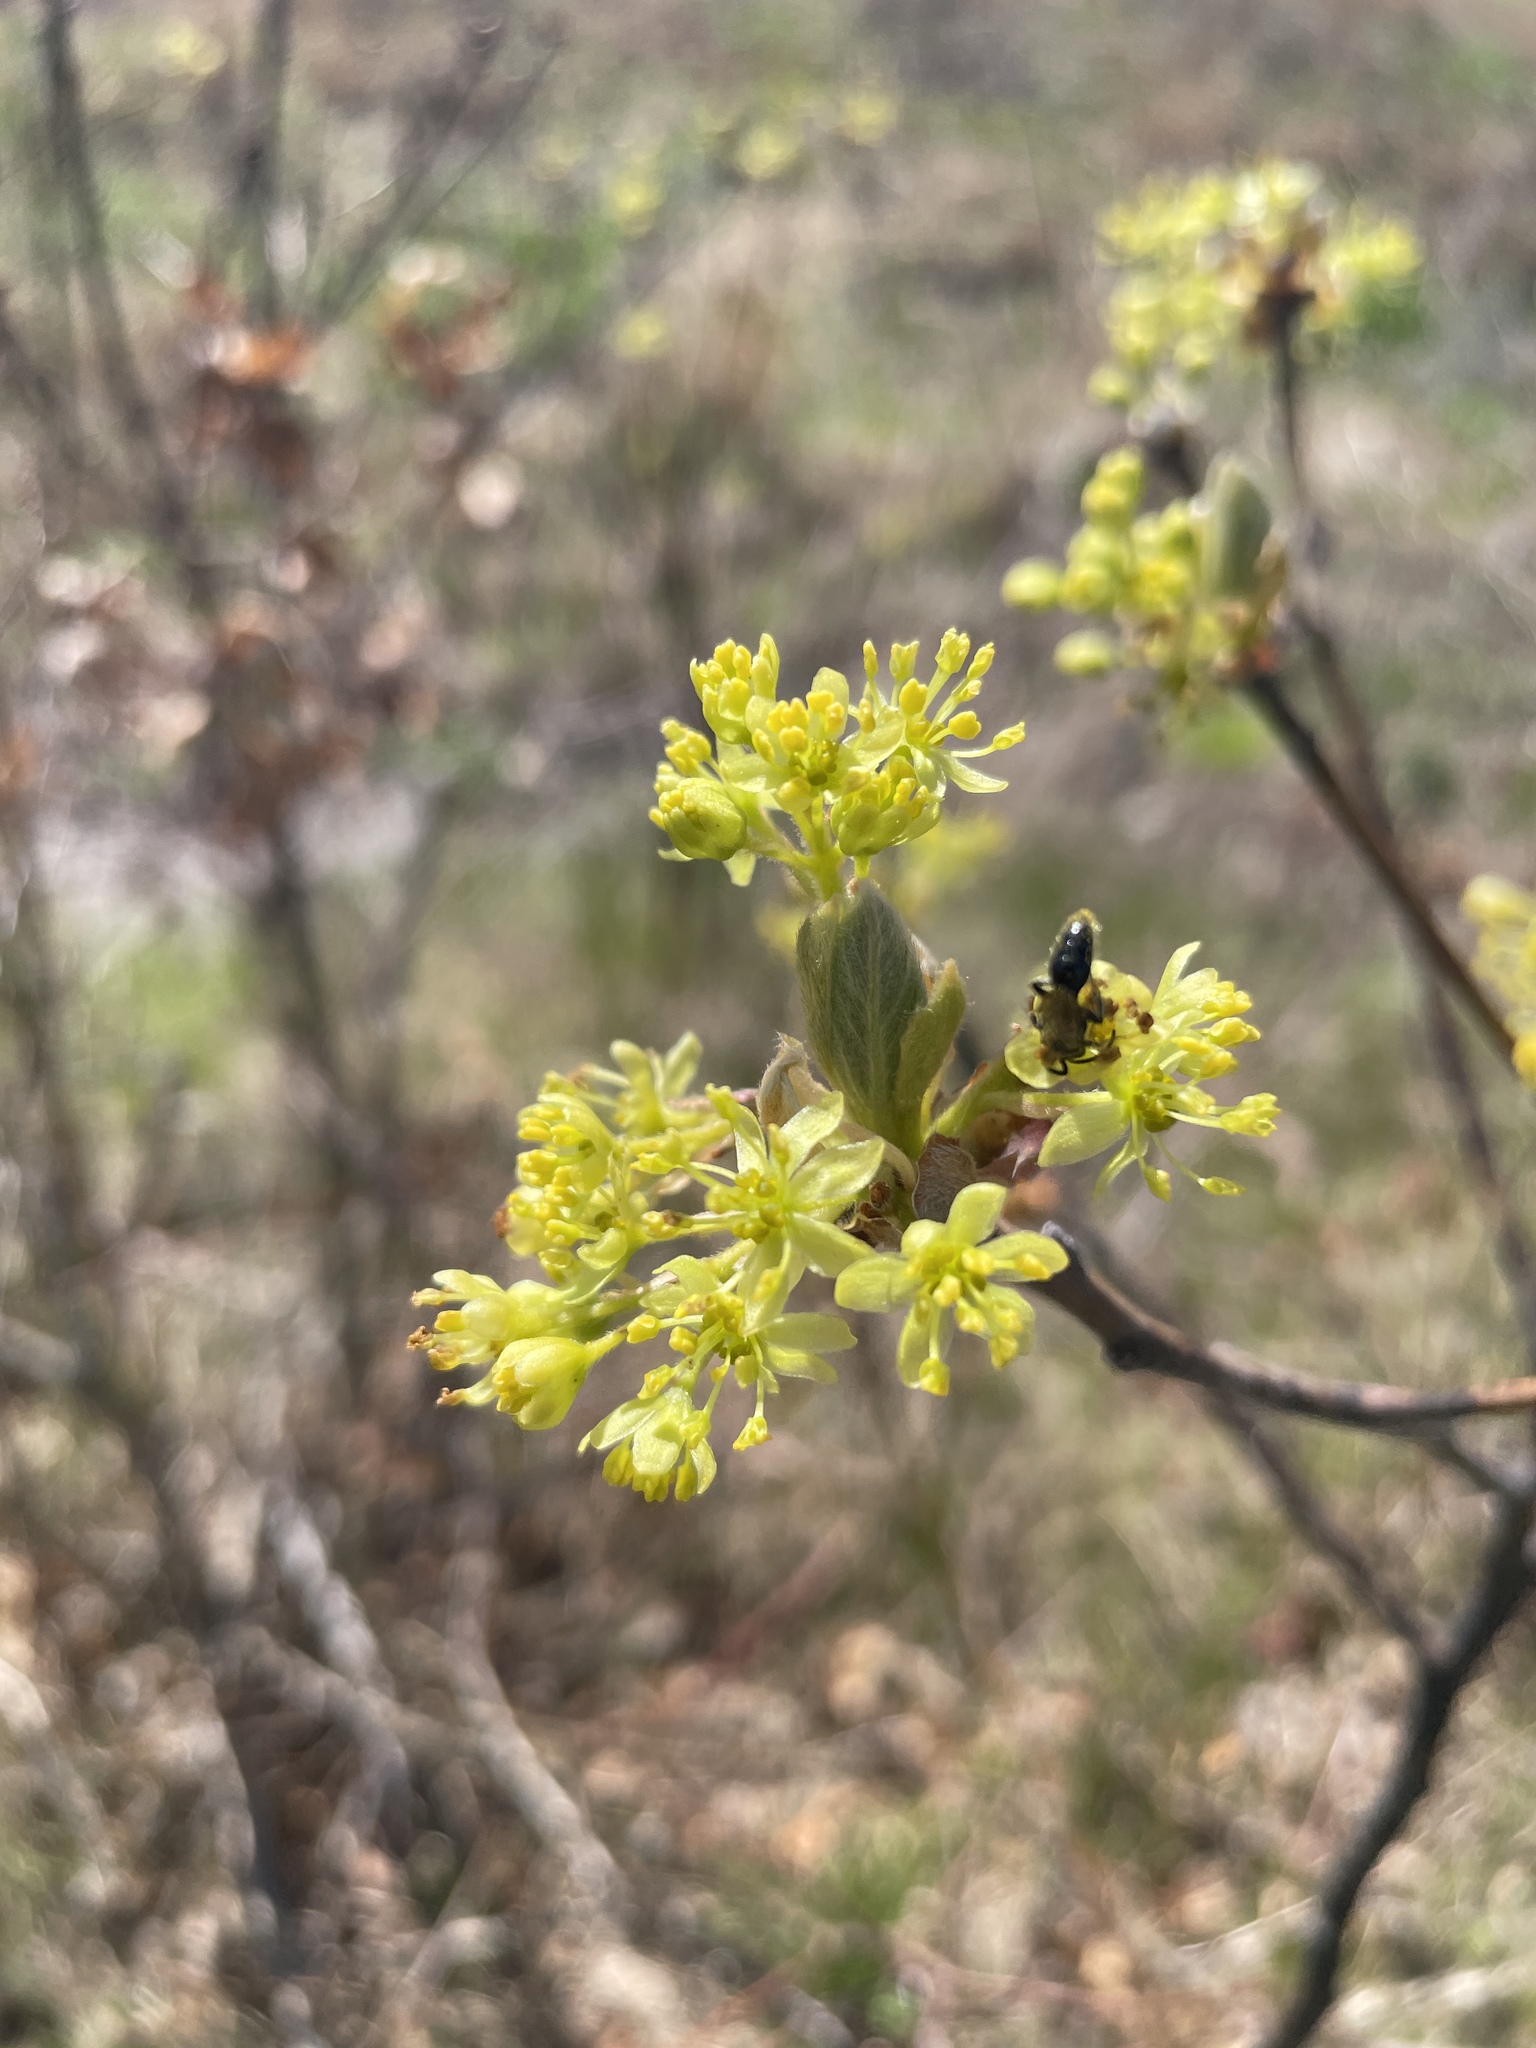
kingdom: Plantae
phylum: Tracheophyta
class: Magnoliopsida
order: Laurales
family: Lauraceae
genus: Sassafras
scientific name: Sassafras albidum
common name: Sassafras
